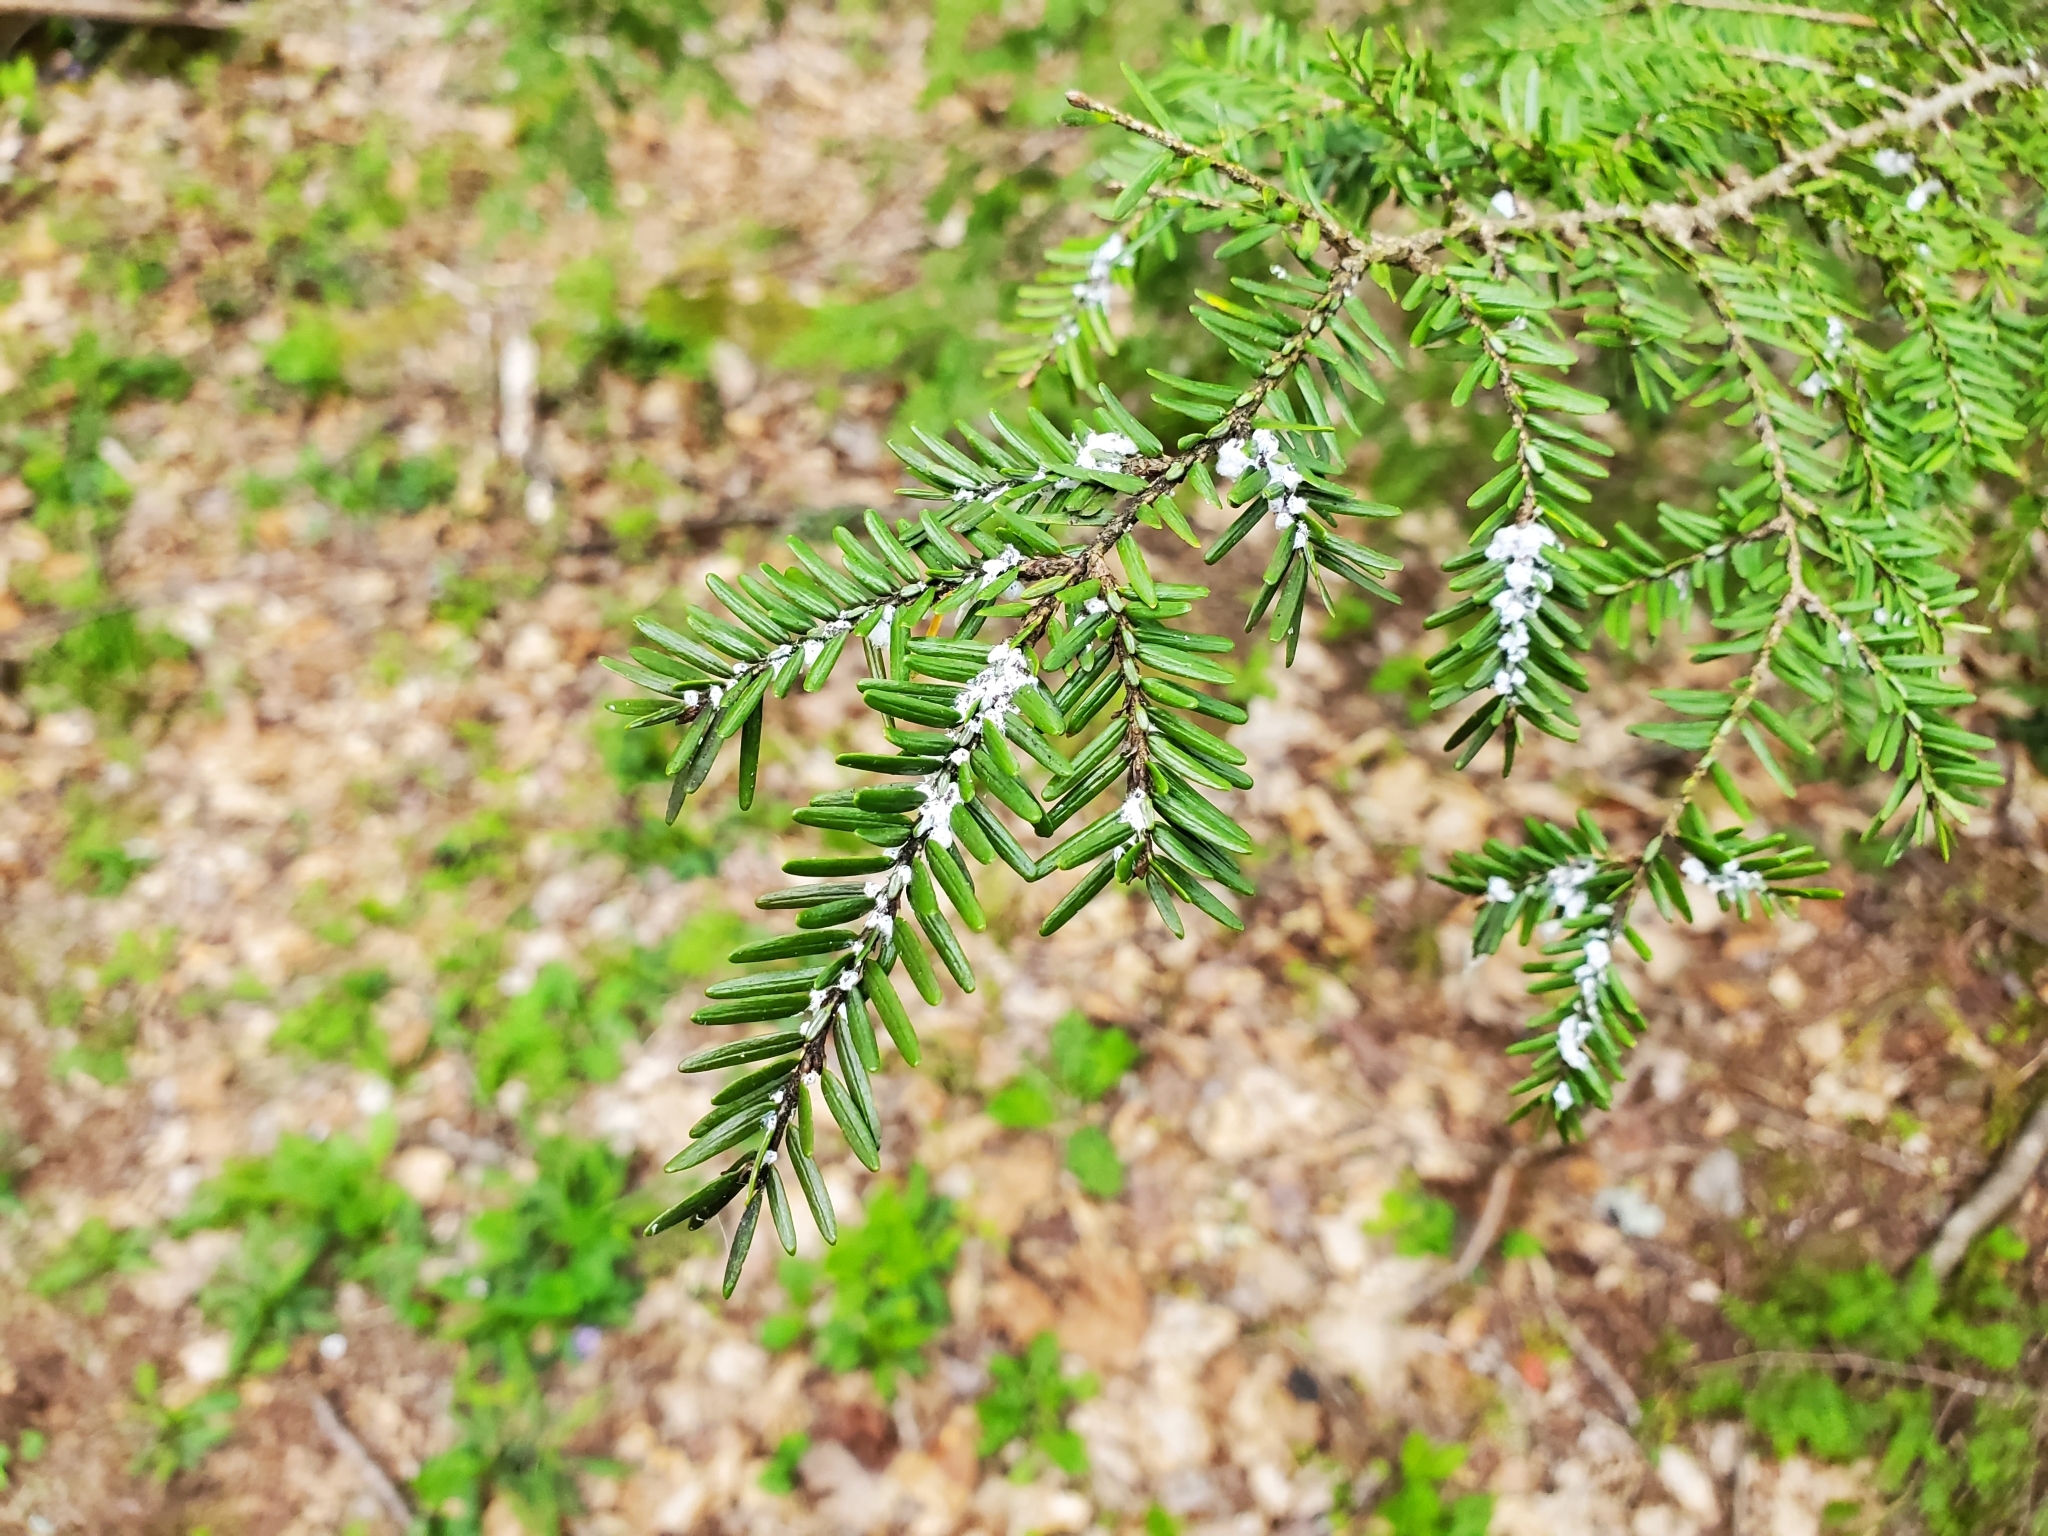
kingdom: Animalia
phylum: Arthropoda
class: Insecta
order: Hemiptera
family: Adelgidae
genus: Adelges
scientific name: Adelges tsugae
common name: Hemlock woolly adelgid
